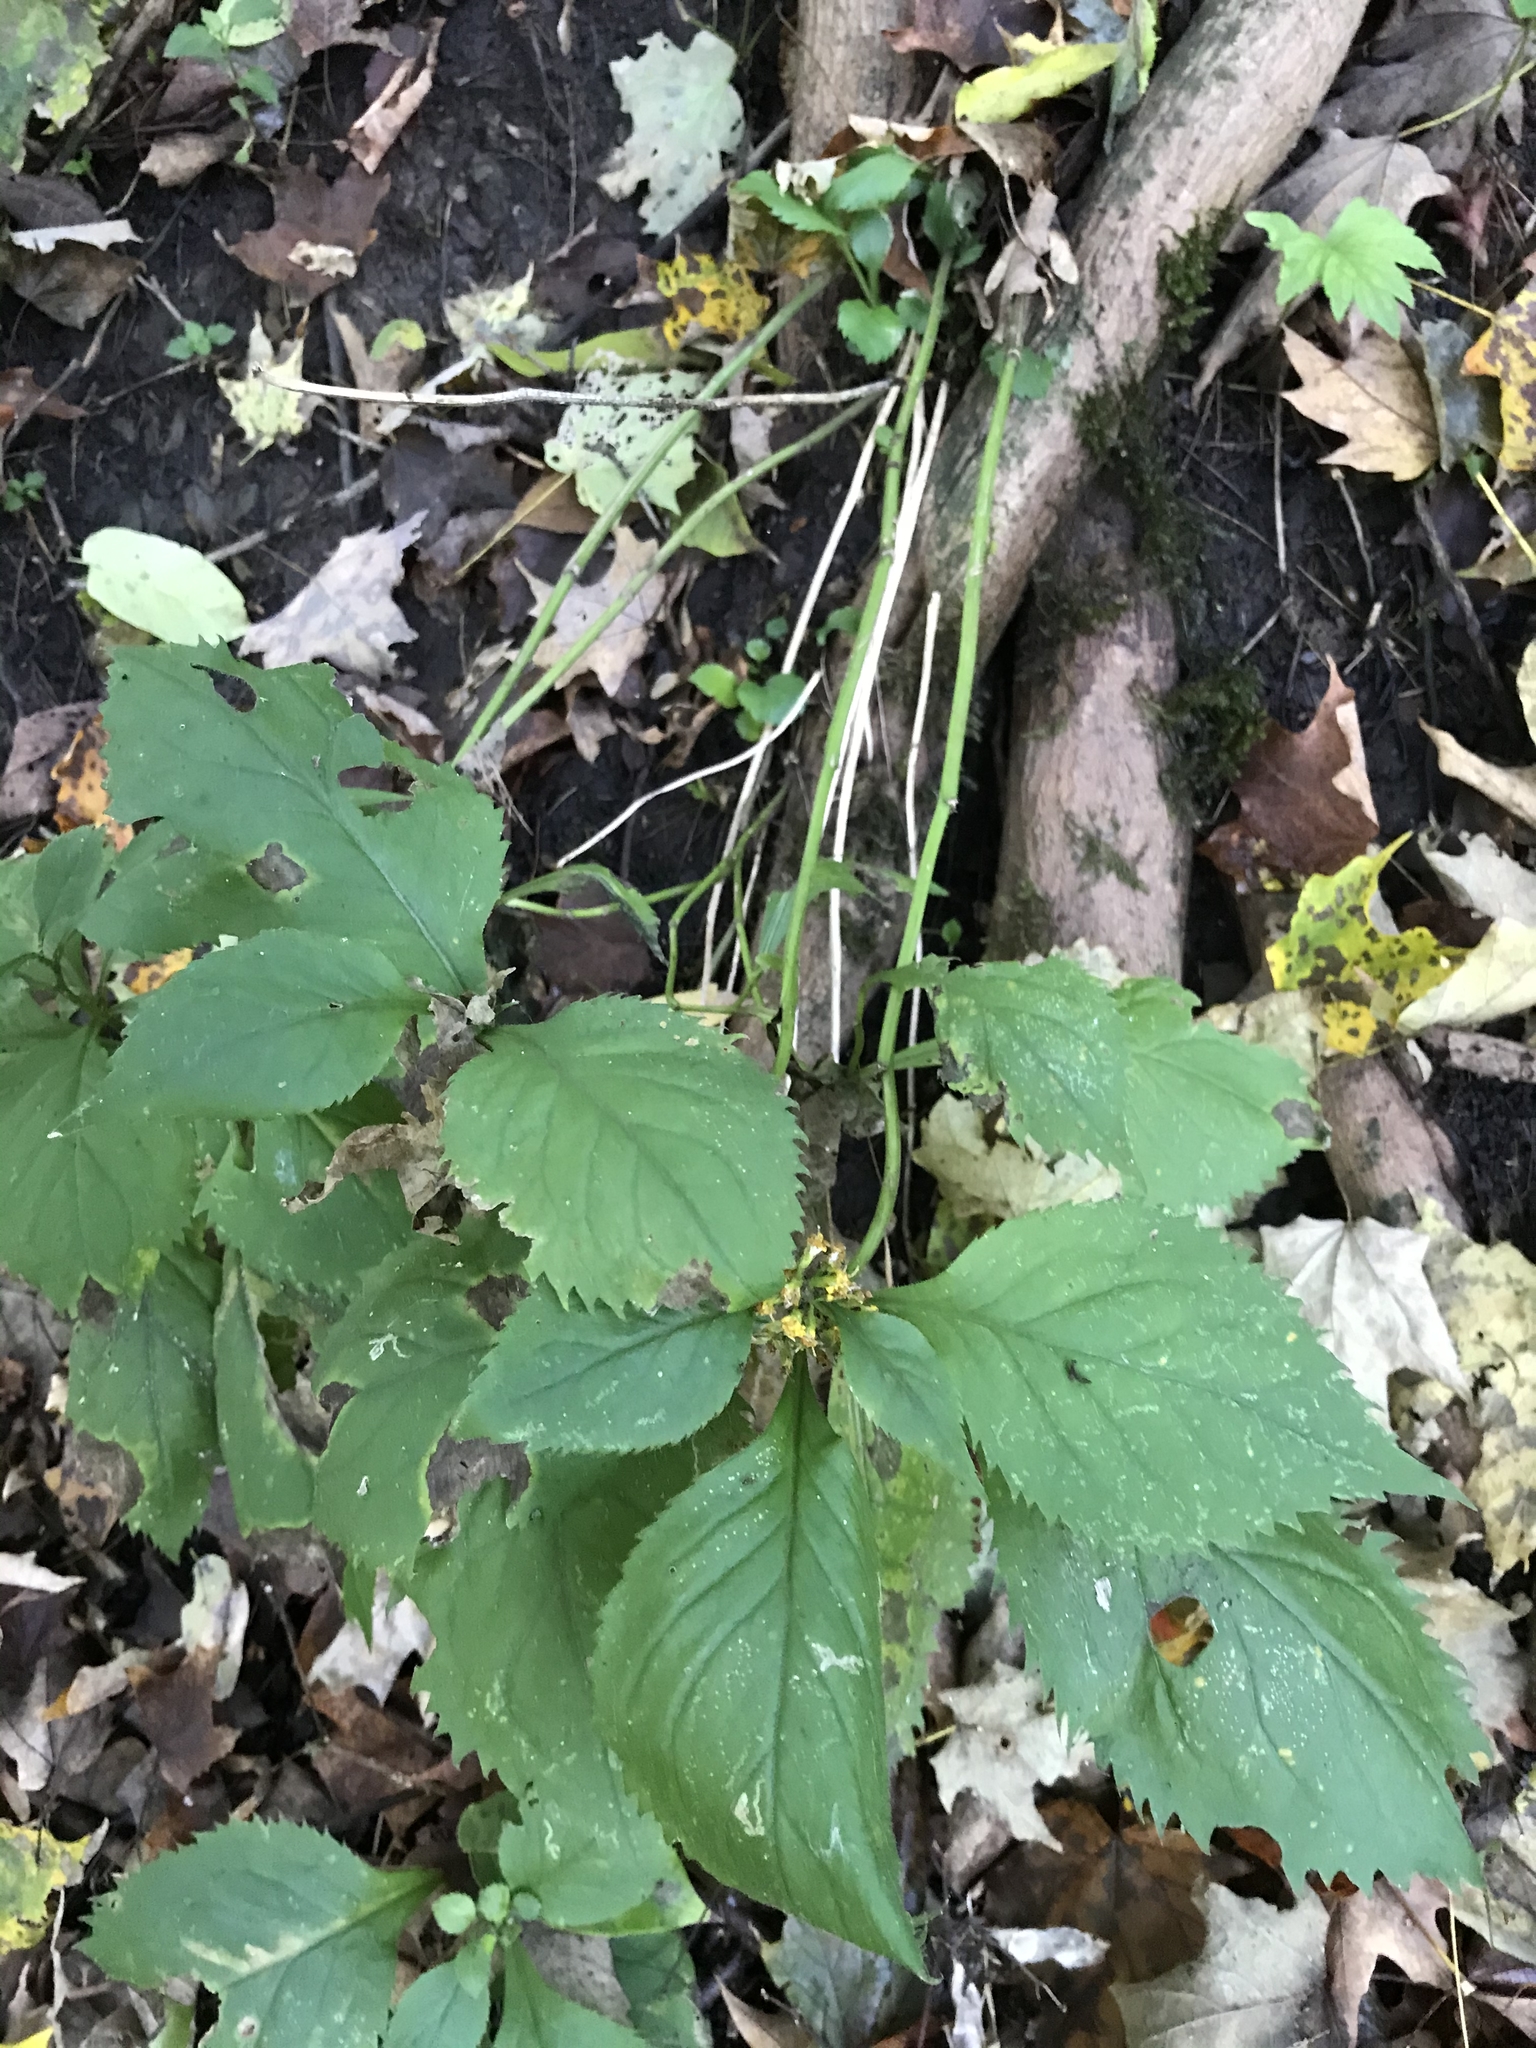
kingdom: Plantae
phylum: Tracheophyta
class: Magnoliopsida
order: Asterales
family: Asteraceae
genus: Solidago
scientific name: Solidago flexicaulis
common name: Zig-zag goldenrod
